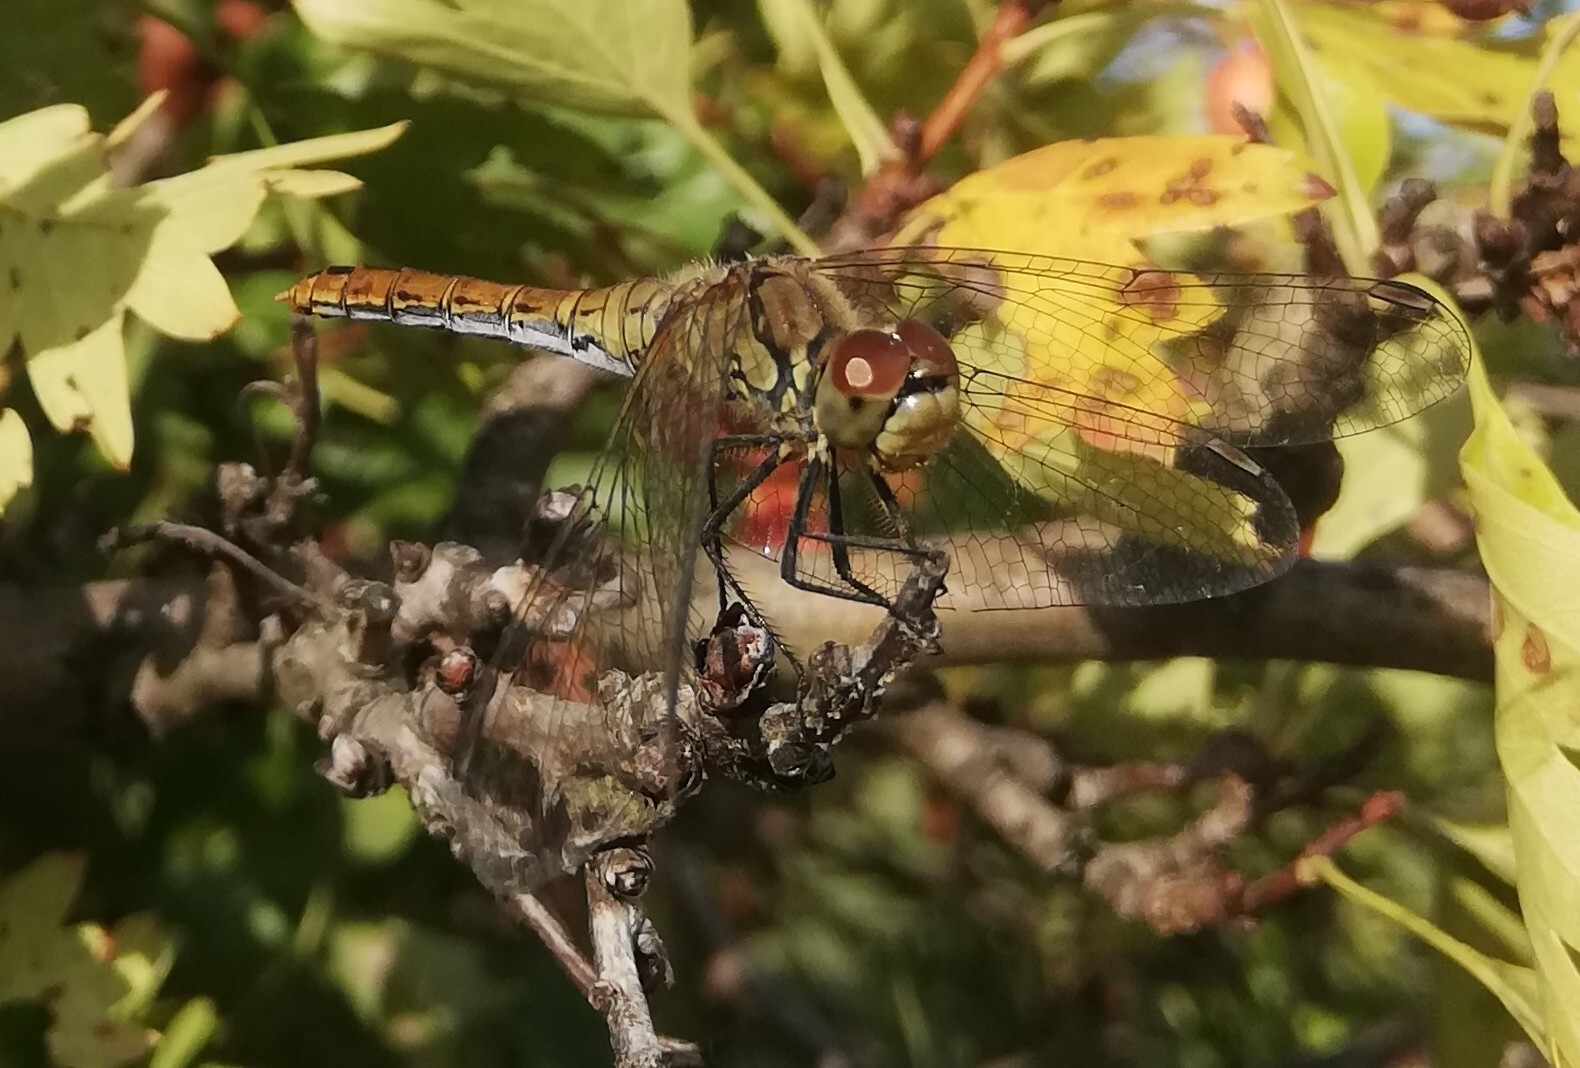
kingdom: Animalia
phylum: Arthropoda
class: Insecta
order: Odonata
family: Libellulidae
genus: Sympetrum
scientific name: Sympetrum sanguineum
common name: Ruddy darter
